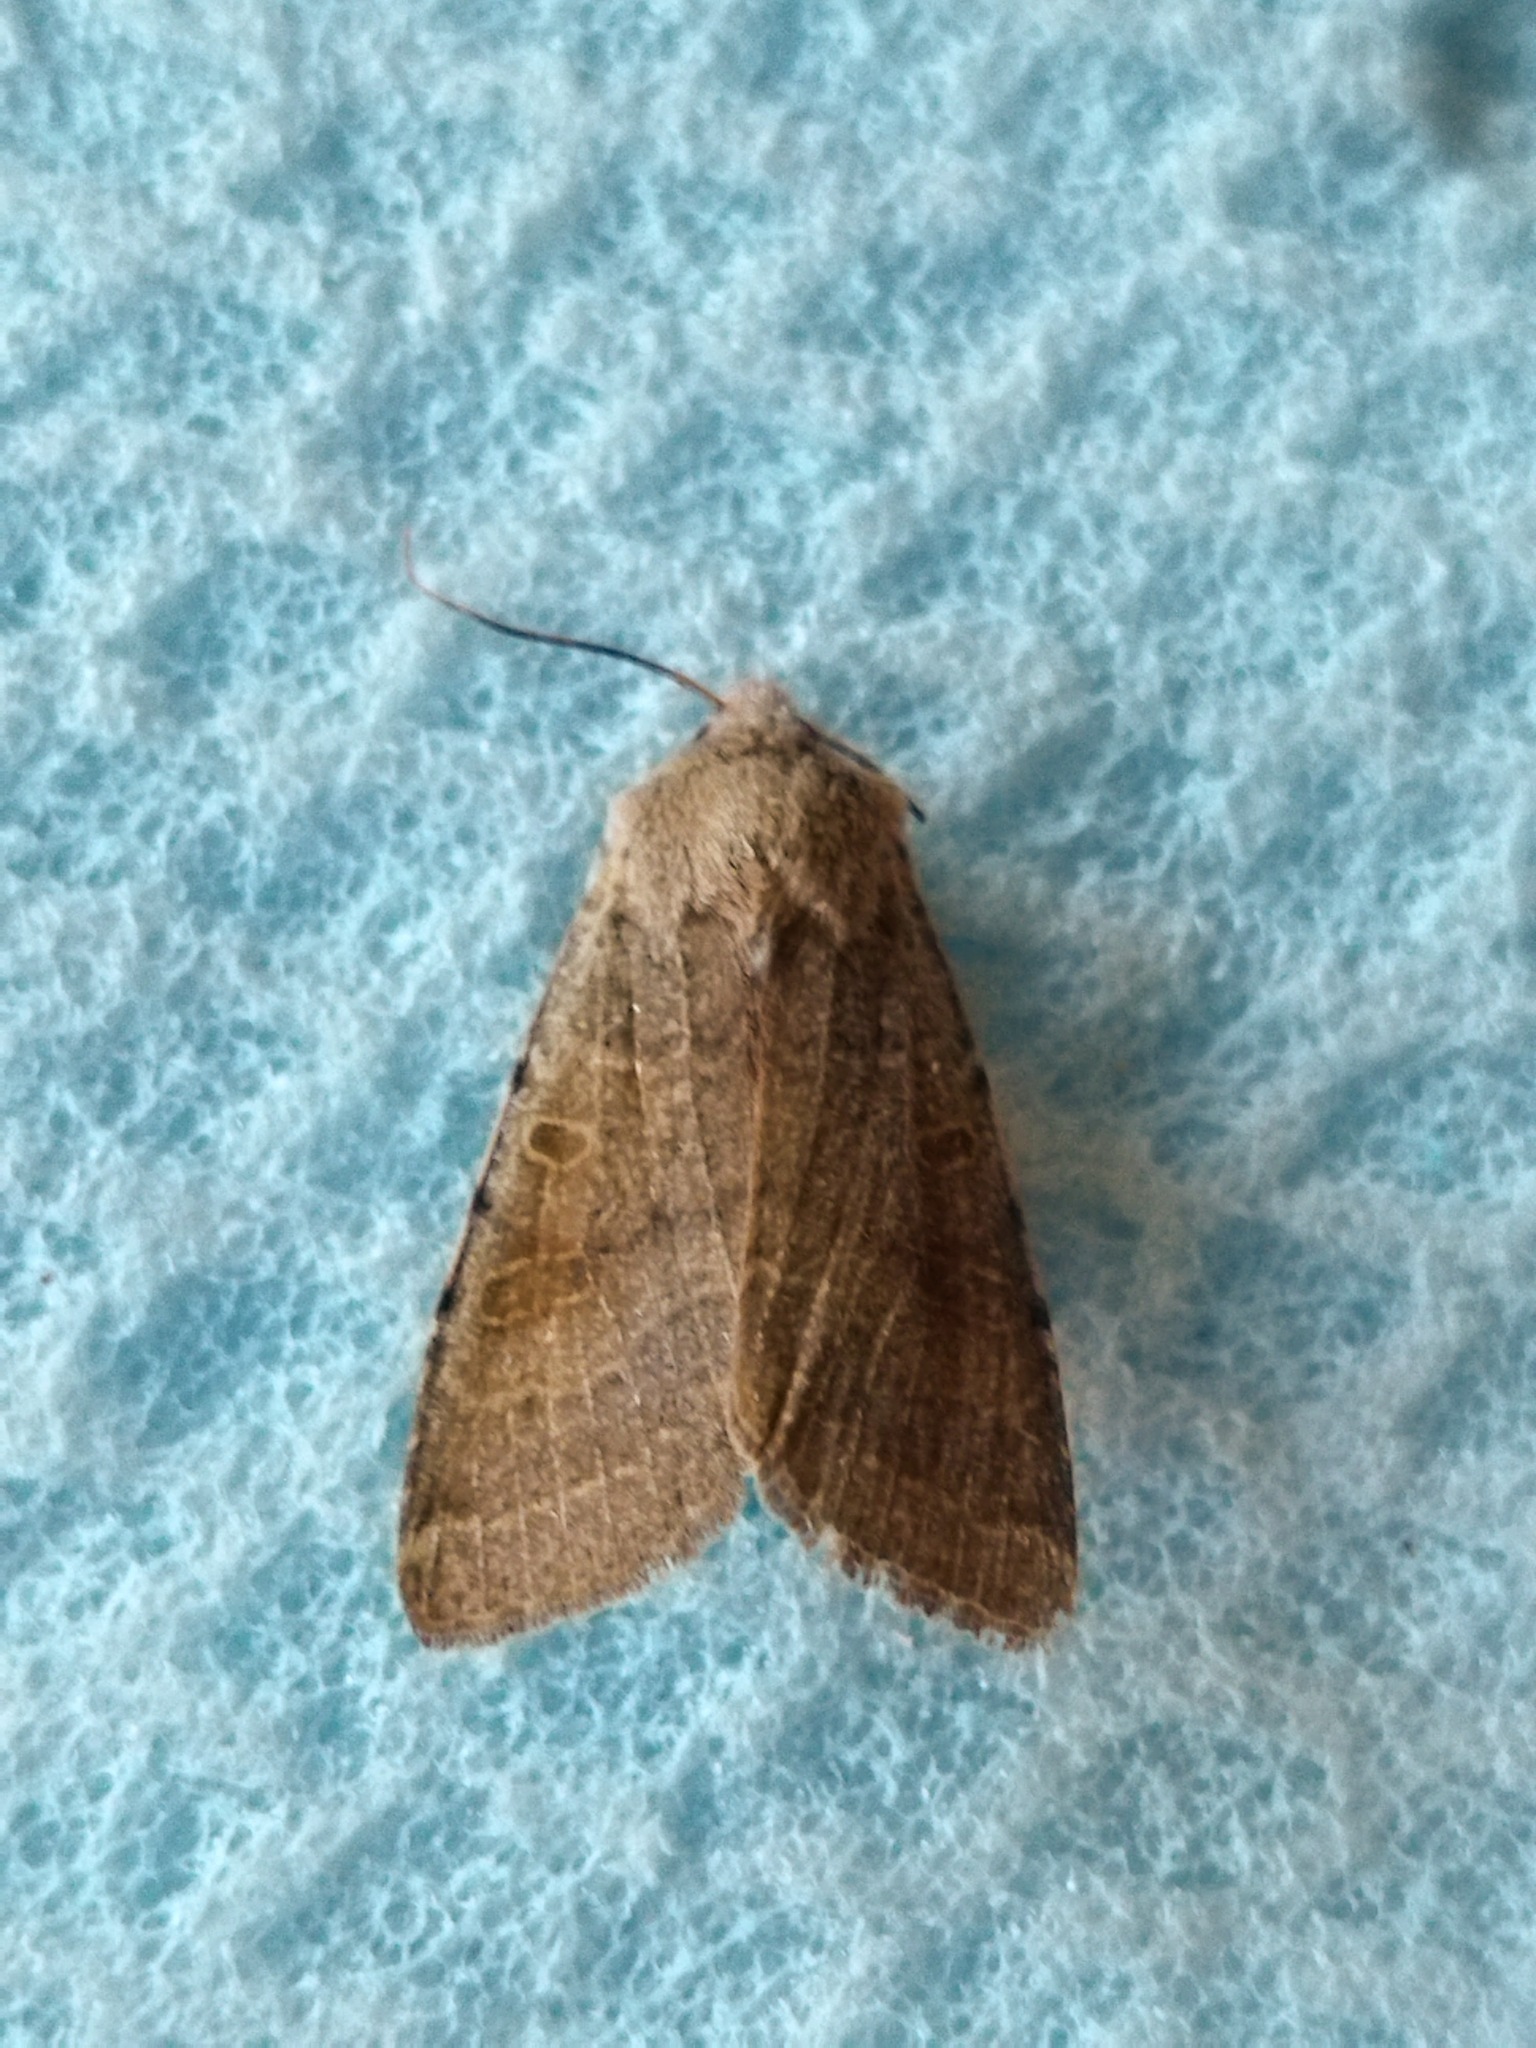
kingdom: Animalia
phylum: Arthropoda
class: Insecta
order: Lepidoptera
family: Noctuidae
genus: Agrochola
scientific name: Agrochola gratiosa
